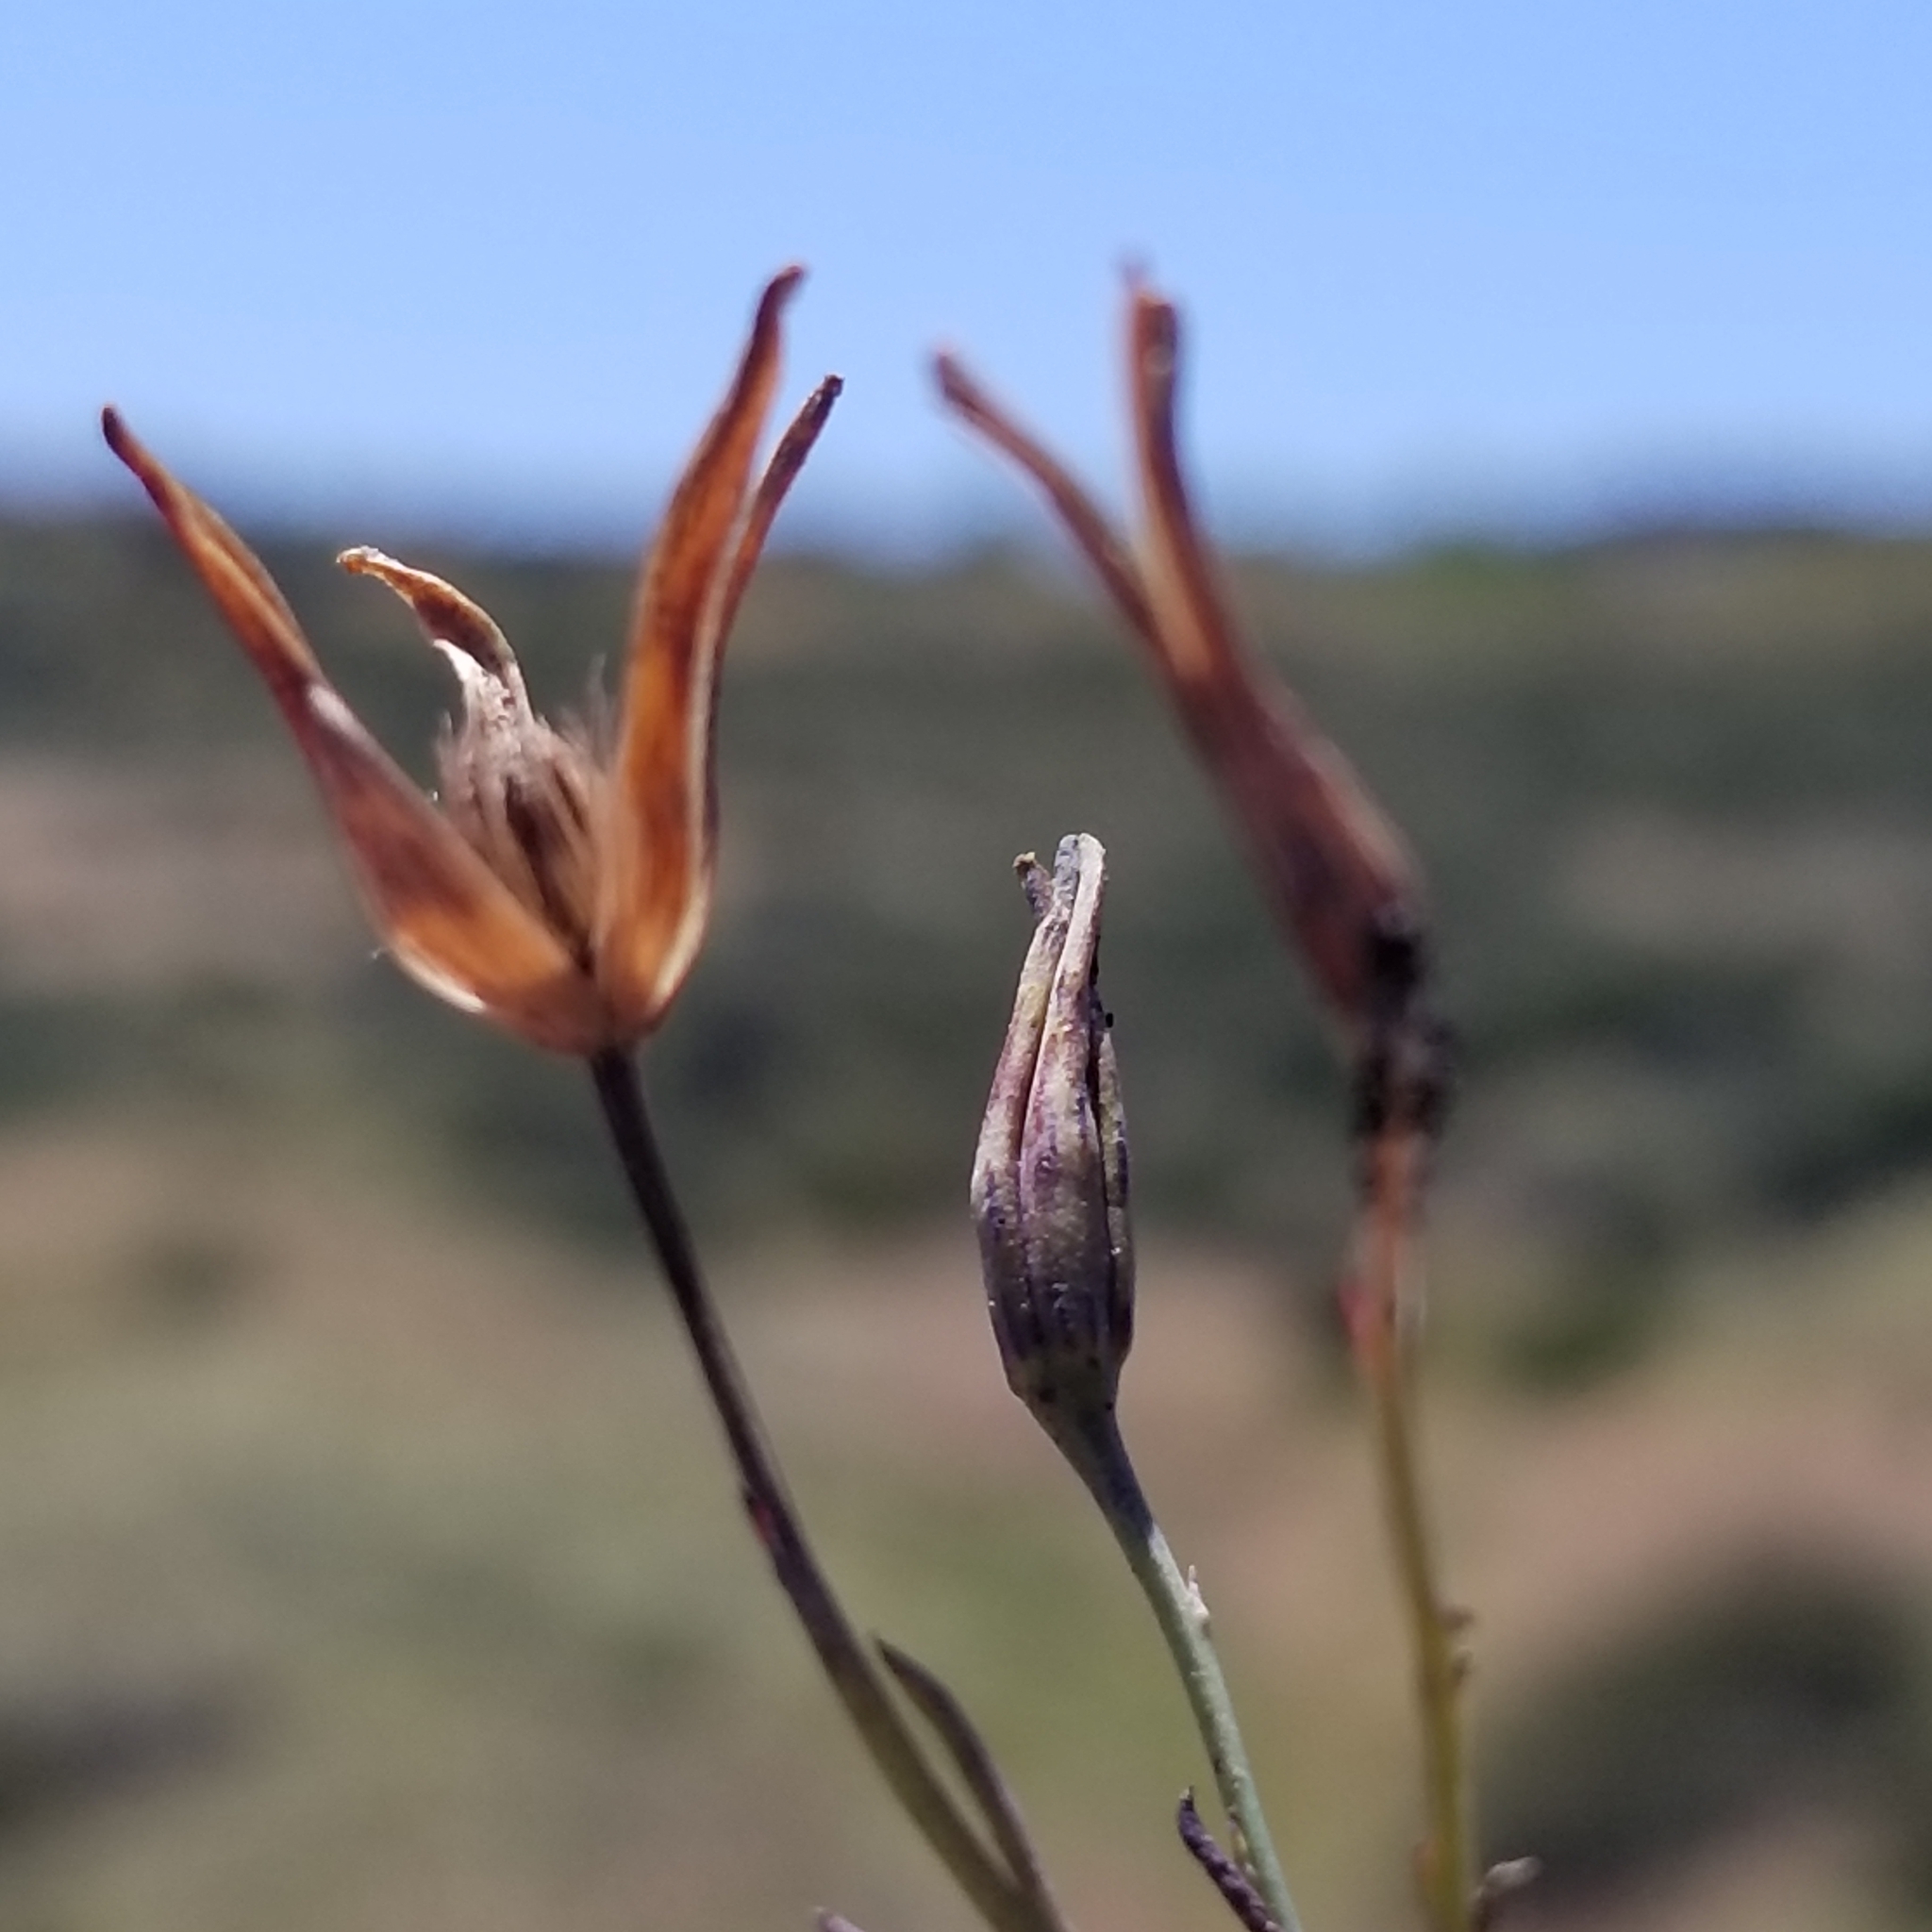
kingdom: Plantae
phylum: Tracheophyta
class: Magnoliopsida
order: Asterales
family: Asteraceae
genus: Porophyllum
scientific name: Porophyllum gracile
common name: Odora
